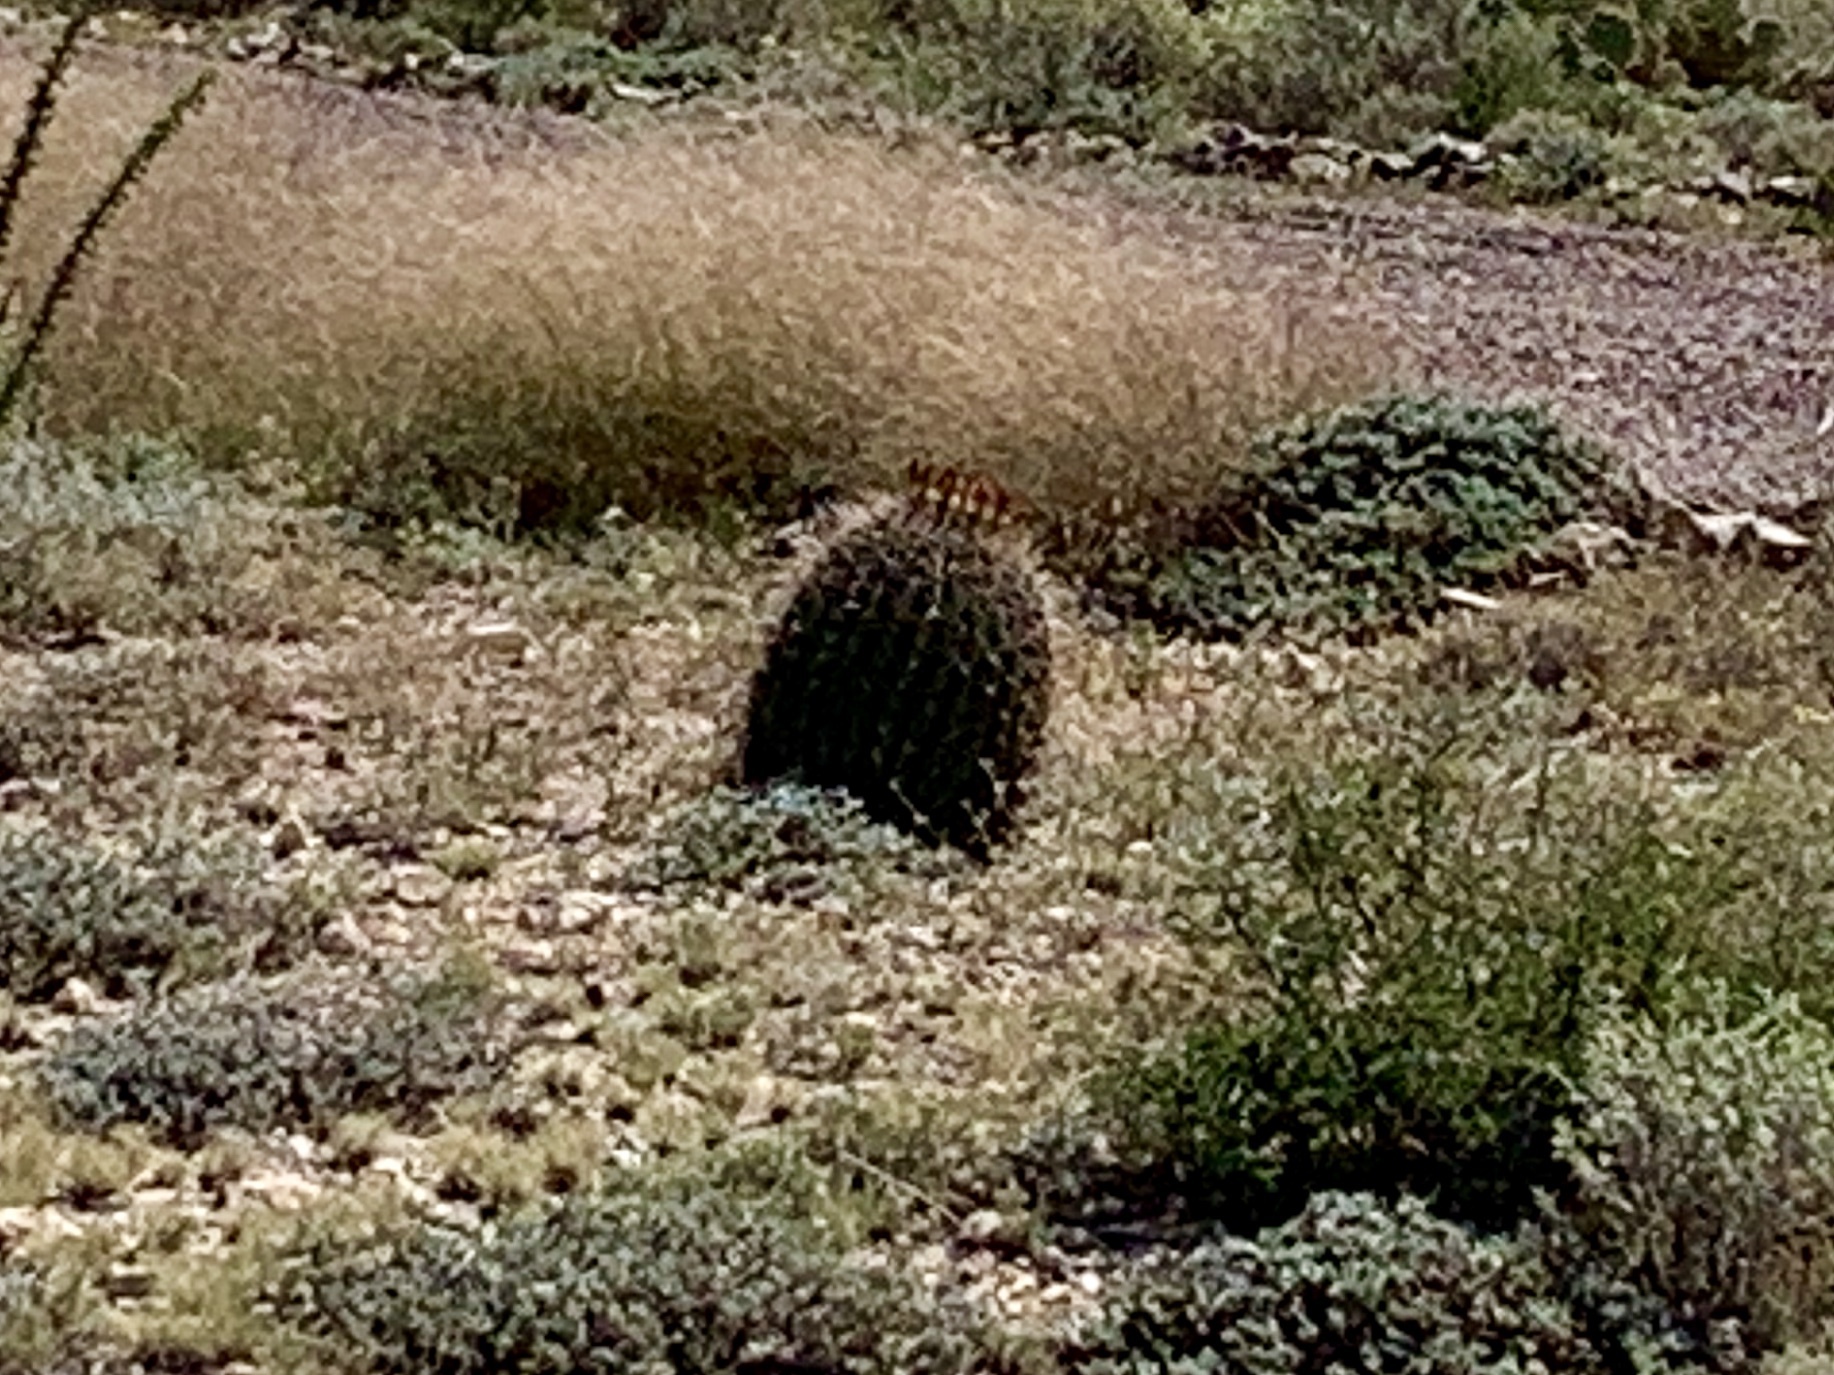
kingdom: Plantae
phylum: Tracheophyta
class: Magnoliopsida
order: Caryophyllales
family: Cactaceae
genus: Ferocactus
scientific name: Ferocactus wislizeni
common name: Candy barrel cactus
